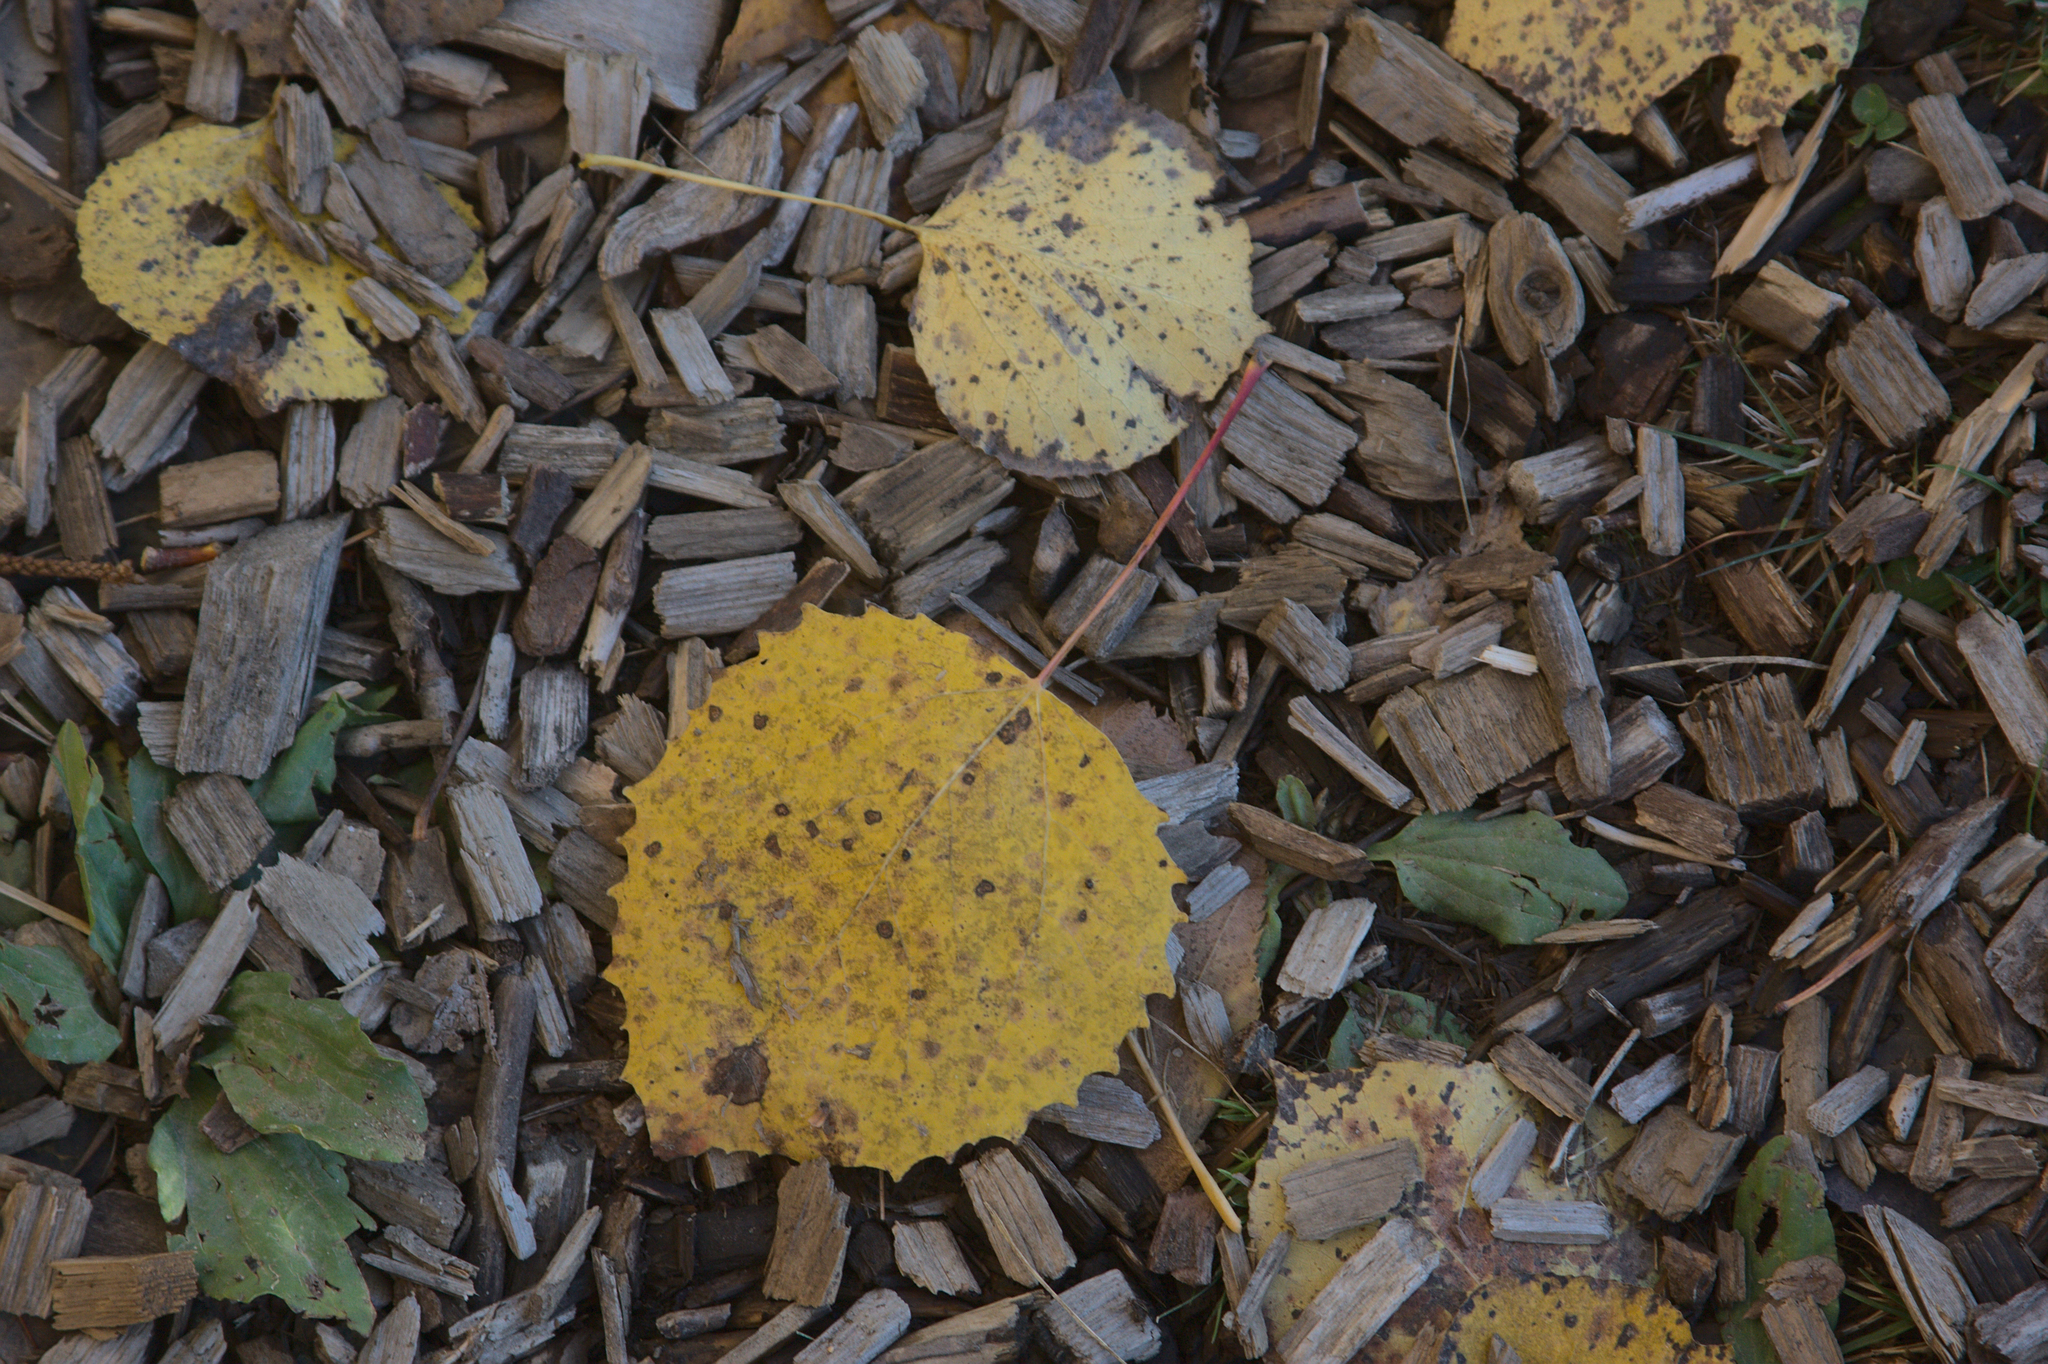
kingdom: Plantae
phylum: Tracheophyta
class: Magnoliopsida
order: Malpighiales
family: Salicaceae
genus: Populus
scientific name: Populus grandidentata
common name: Bigtooth aspen
